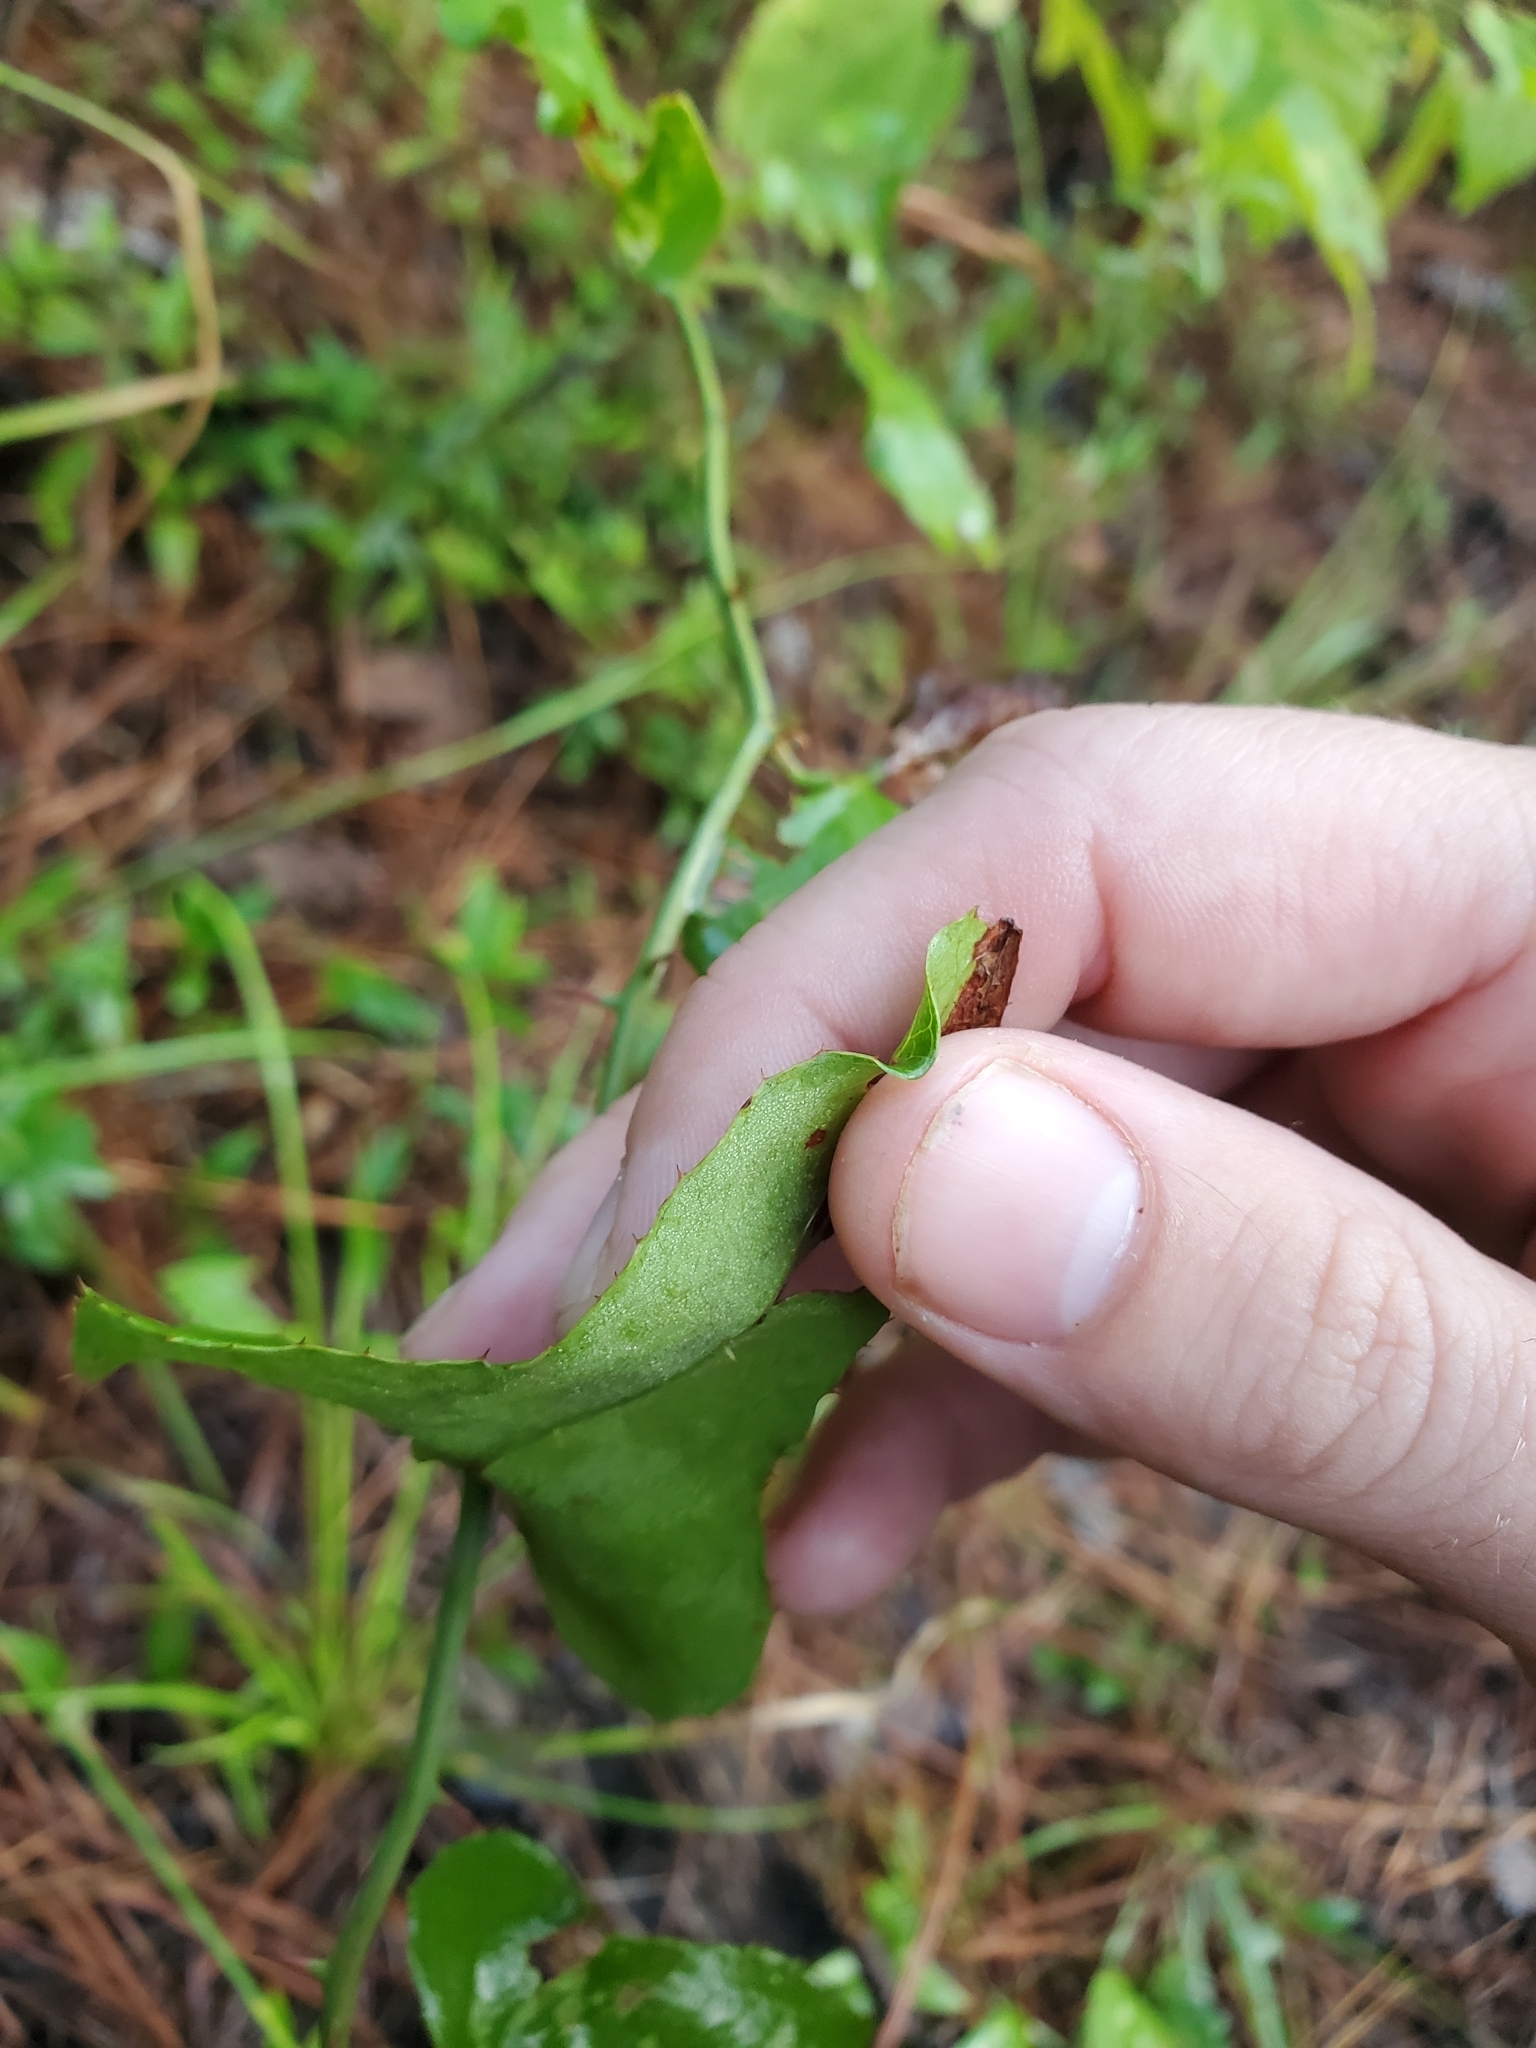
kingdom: Plantae
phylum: Tracheophyta
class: Liliopsida
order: Liliales
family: Smilacaceae
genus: Smilax
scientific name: Smilax bona-nox
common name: Catbrier
